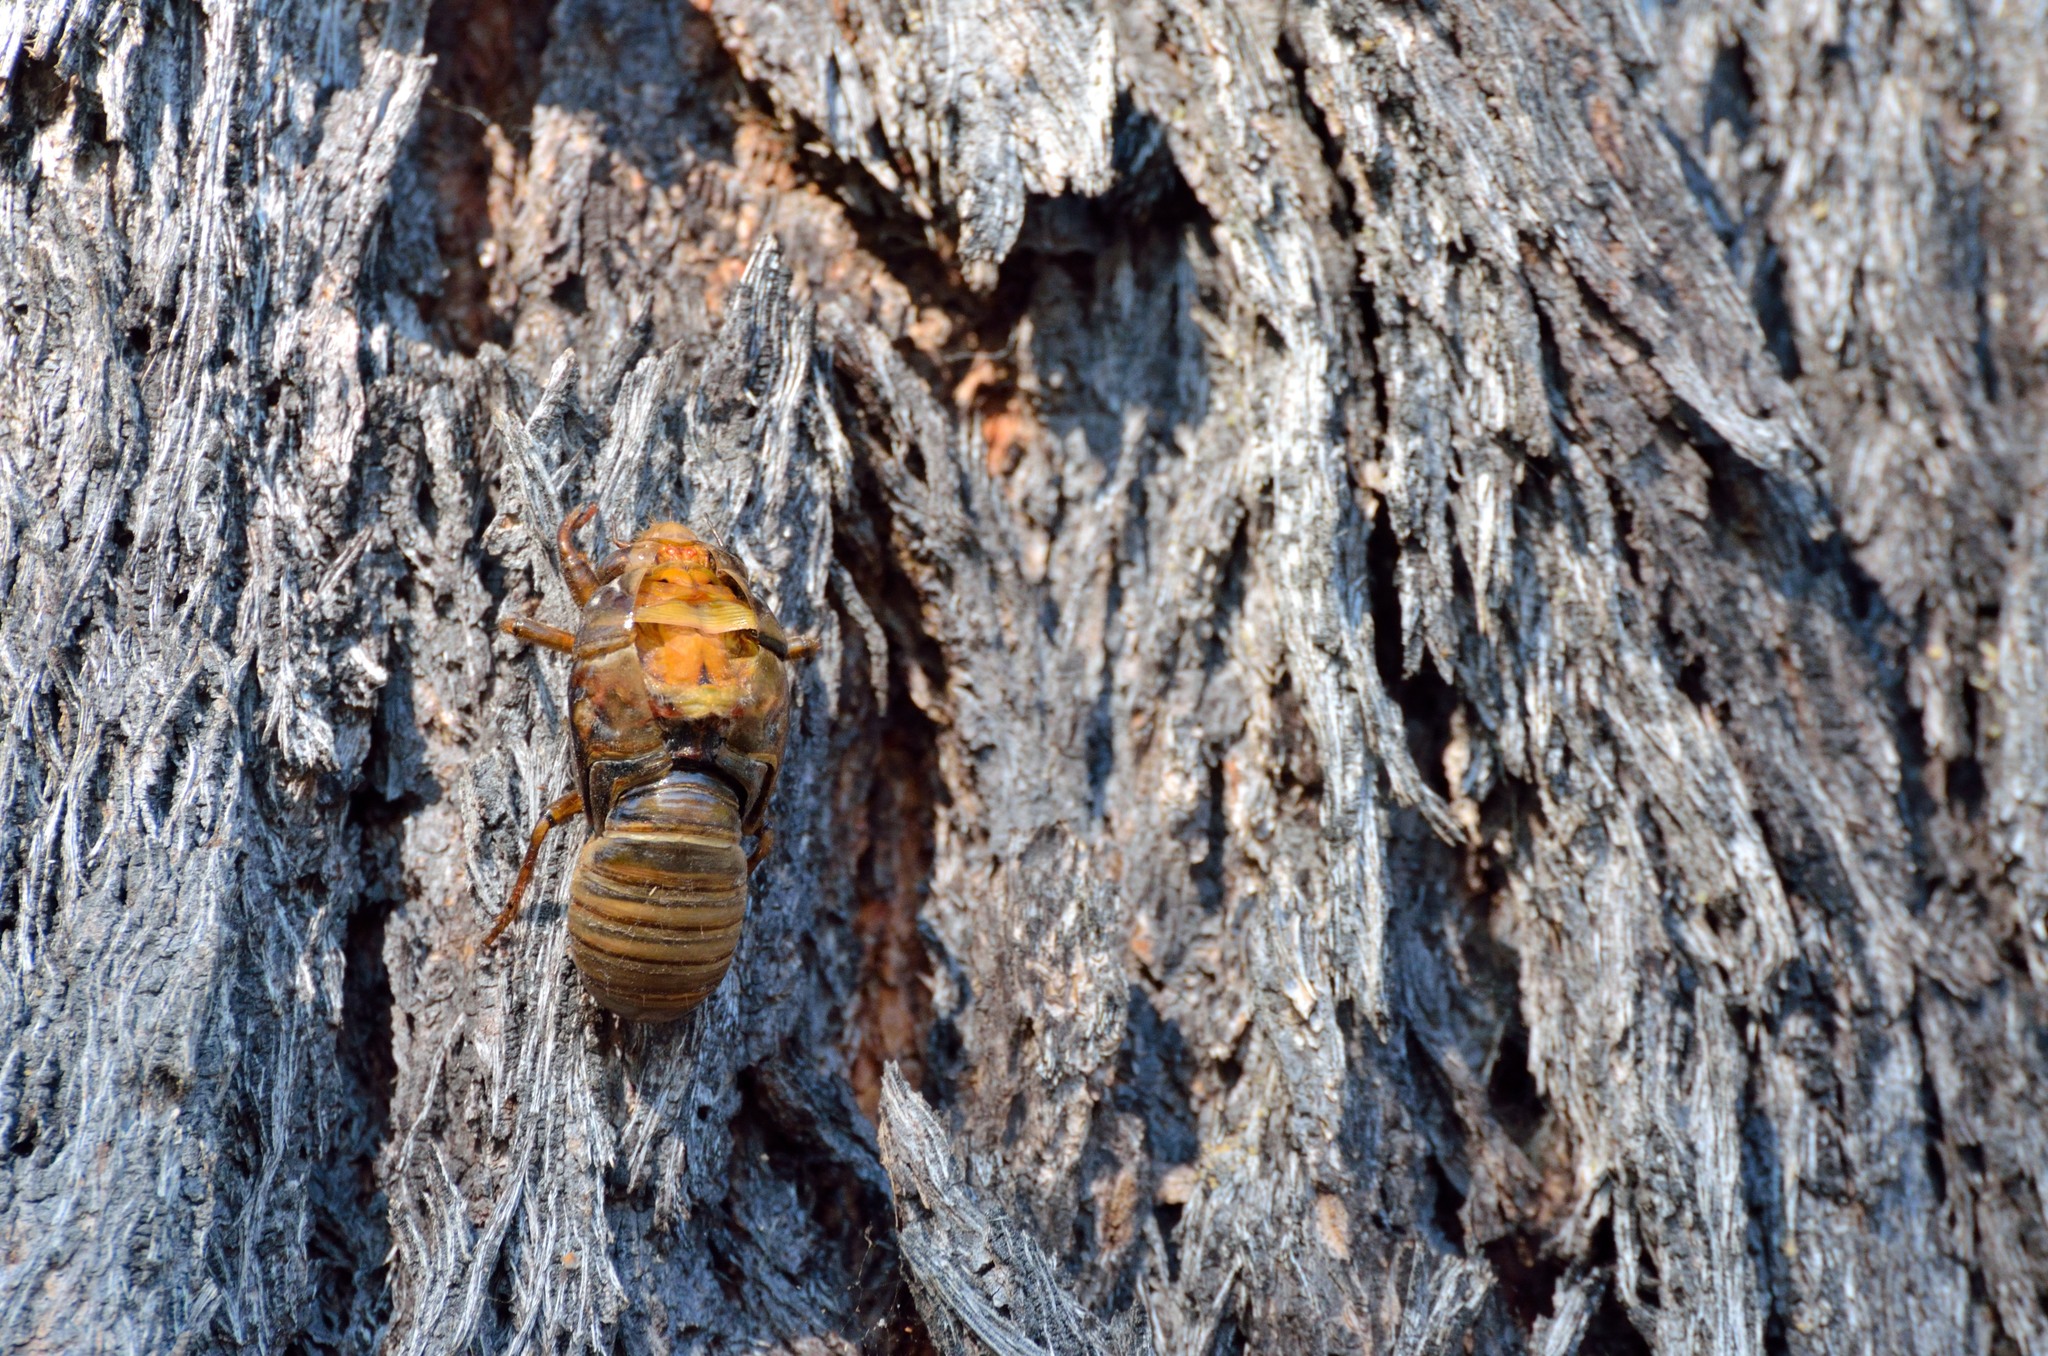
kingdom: Animalia
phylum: Arthropoda
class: Insecta
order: Hemiptera
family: Cicadidae
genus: Cyclochila
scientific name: Cyclochila australasiae
